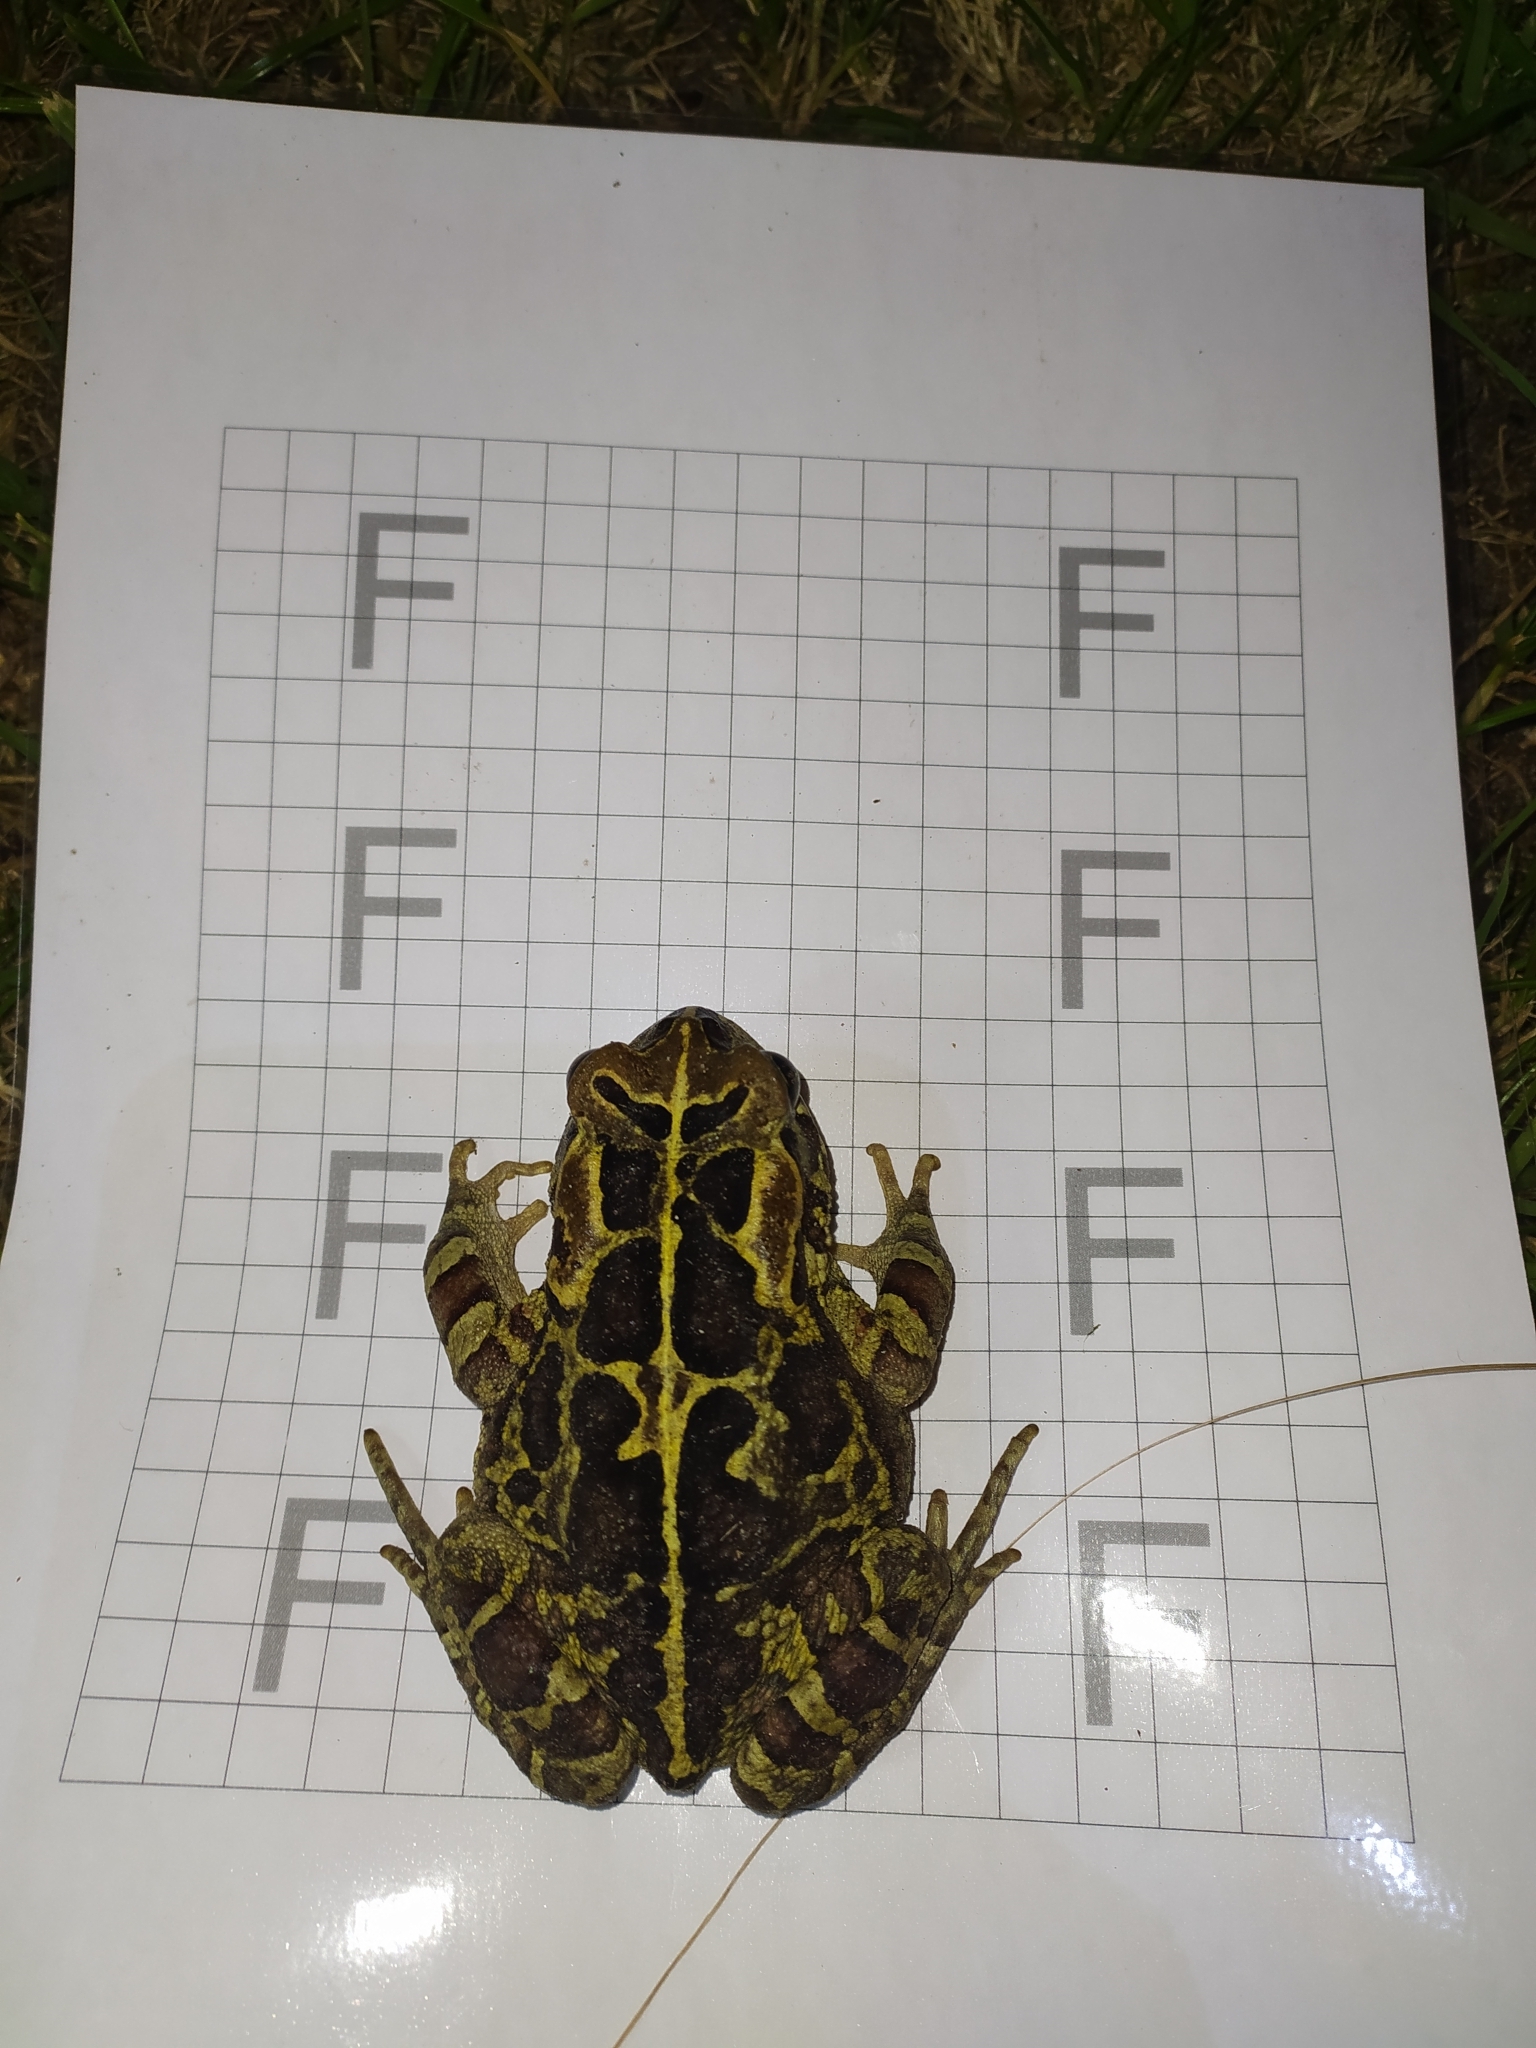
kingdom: Animalia
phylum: Chordata
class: Amphibia
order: Anura
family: Bufonidae
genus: Sclerophrys
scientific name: Sclerophrys pantherina
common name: Panther toad
